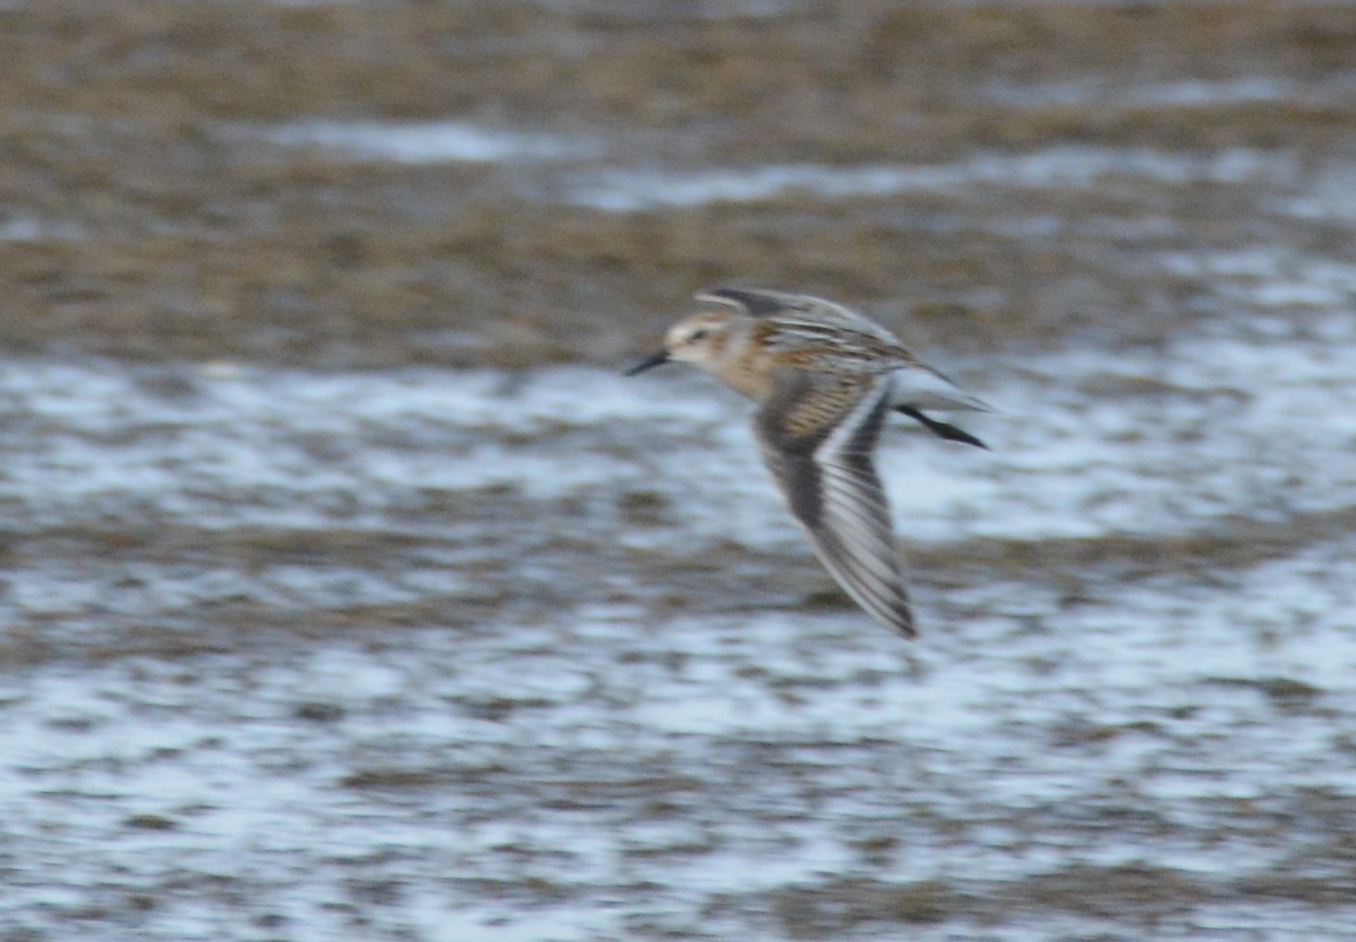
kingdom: Animalia
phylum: Chordata
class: Aves
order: Charadriiformes
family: Scolopacidae
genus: Calidris
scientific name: Calidris minuta
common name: Little stint
